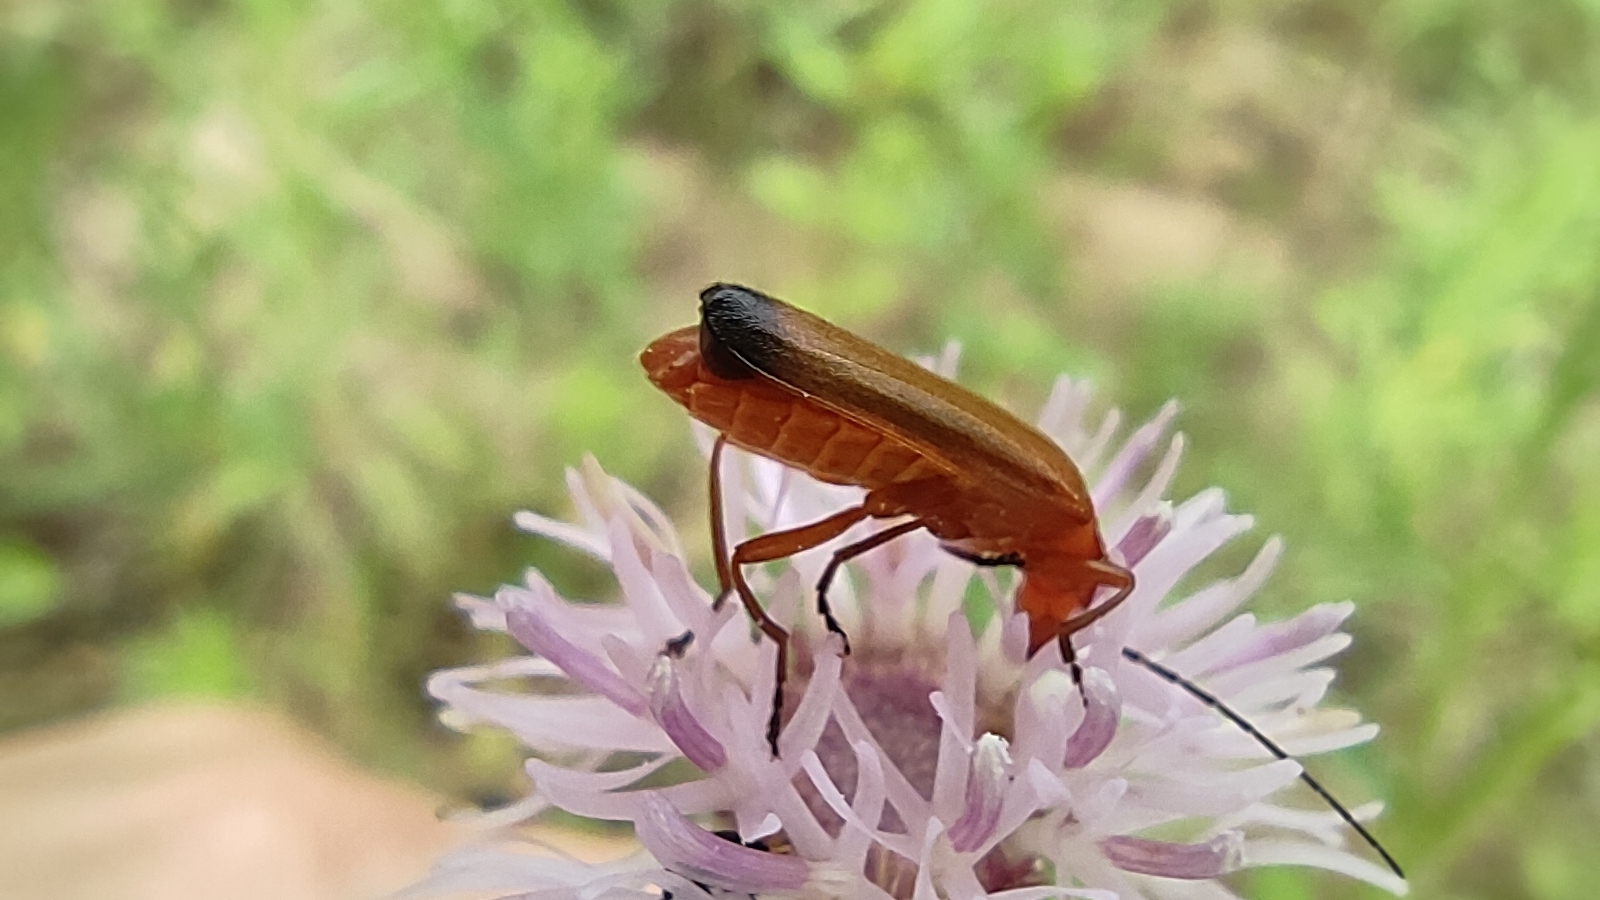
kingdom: Animalia
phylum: Arthropoda
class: Insecta
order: Coleoptera
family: Cantharidae
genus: Rhagonycha
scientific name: Rhagonycha fulva
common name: Common red soldier beetle
